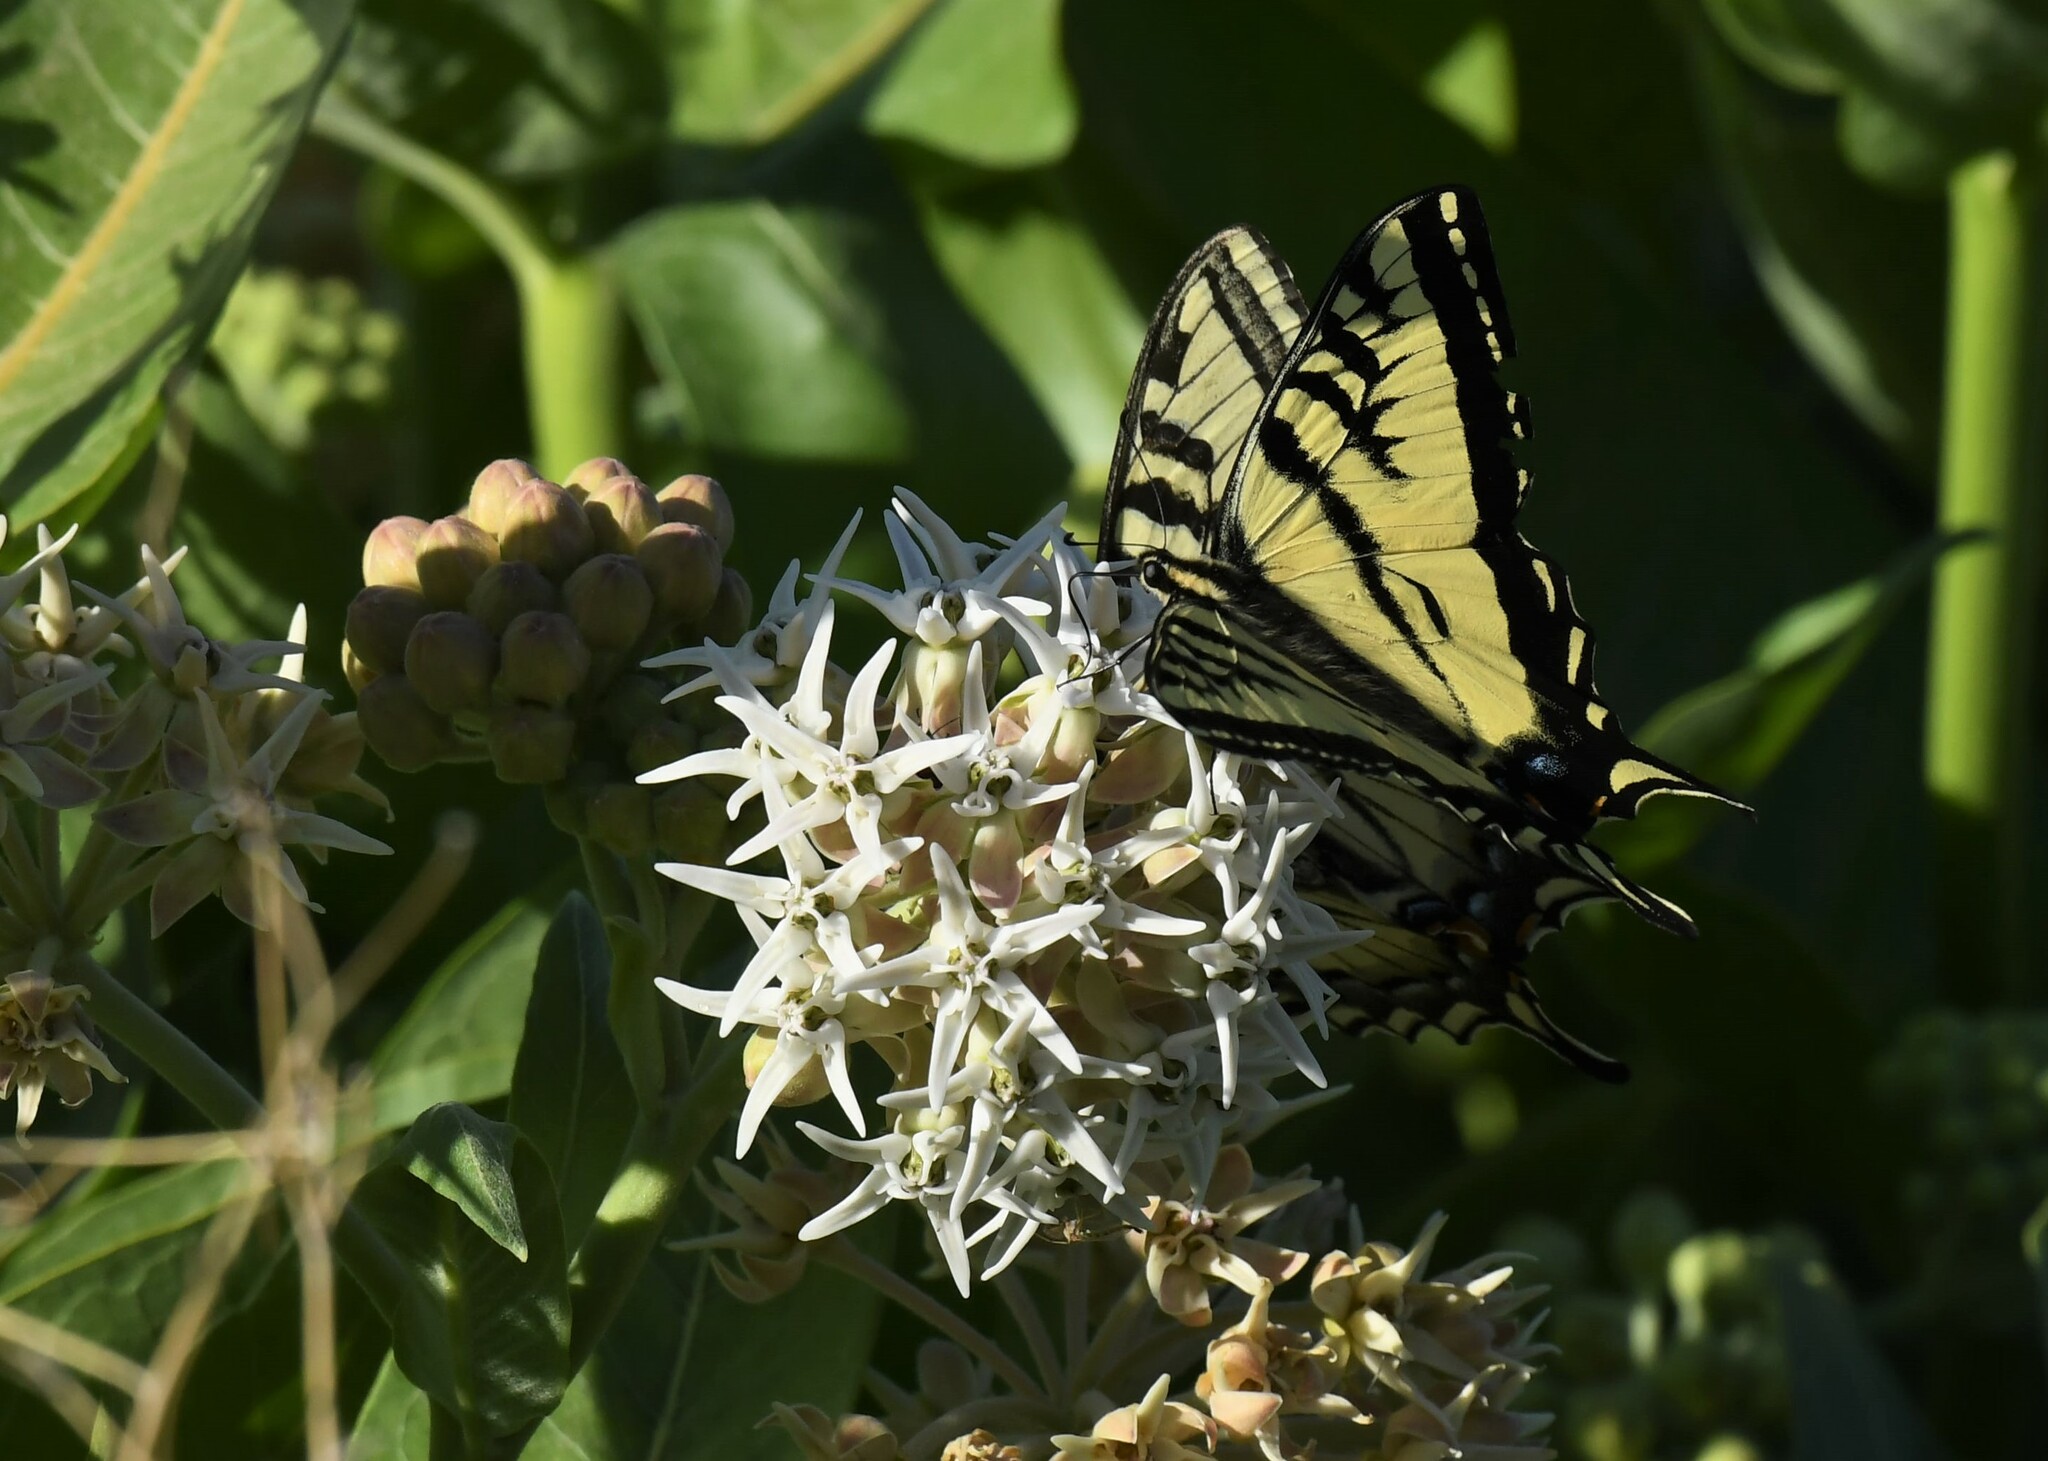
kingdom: Animalia
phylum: Arthropoda
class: Insecta
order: Lepidoptera
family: Papilionidae
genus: Papilio
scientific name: Papilio rutulus
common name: Western tiger swallowtail
